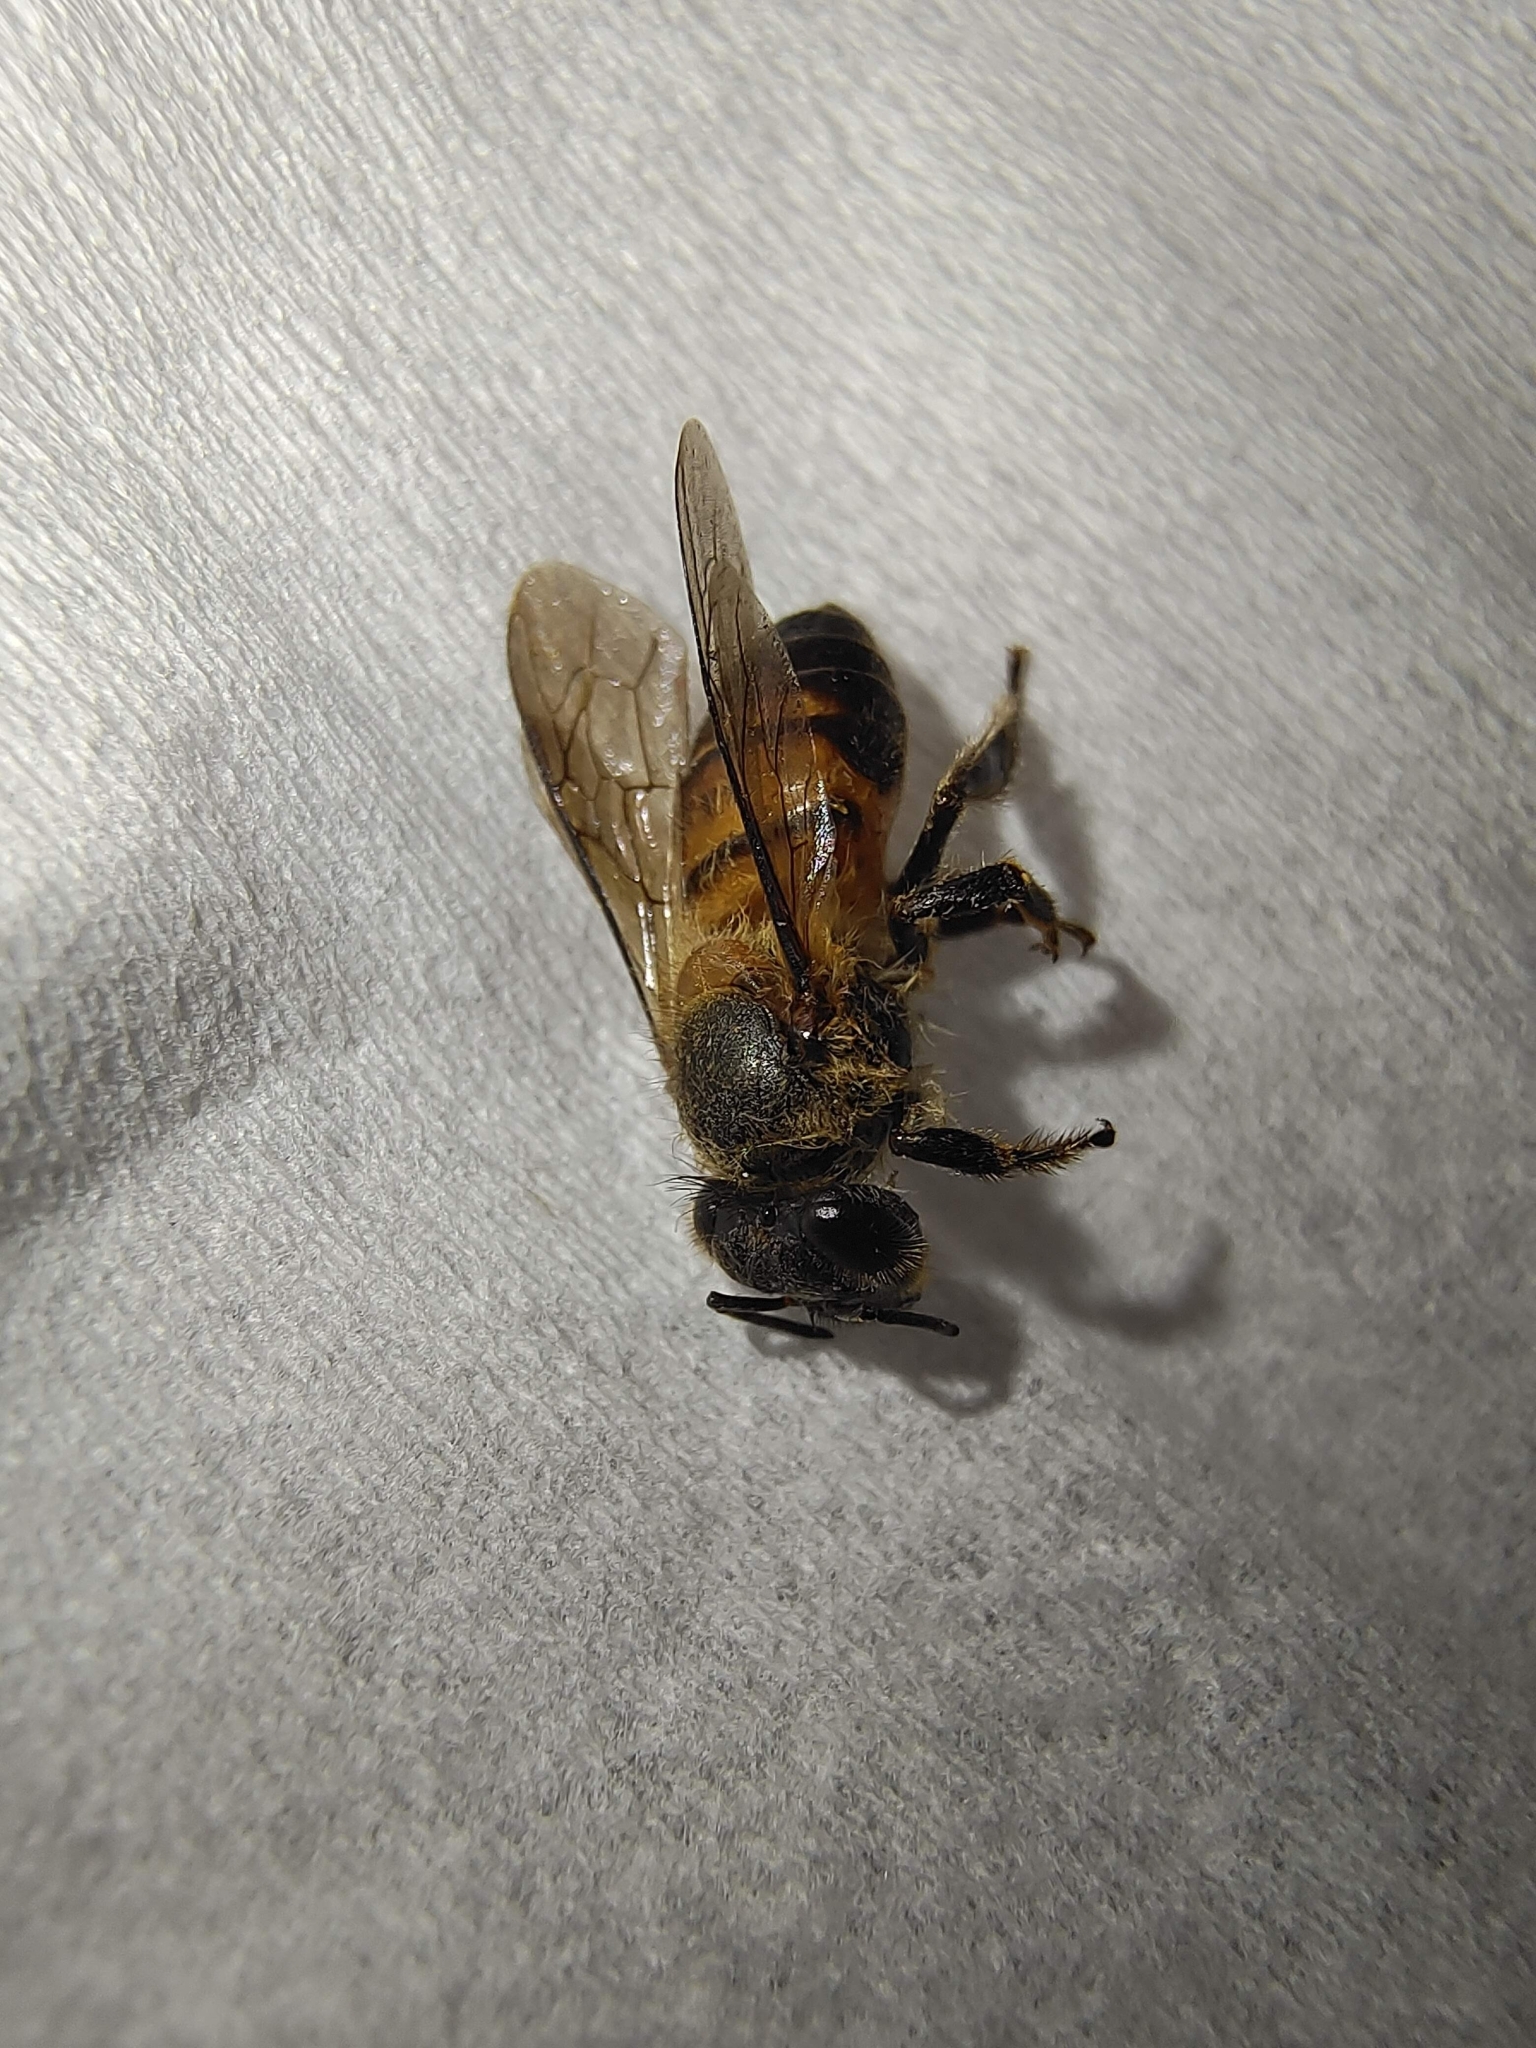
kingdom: Animalia
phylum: Arthropoda
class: Insecta
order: Hymenoptera
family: Apidae
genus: Apis
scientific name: Apis cerana
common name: Honey bee
